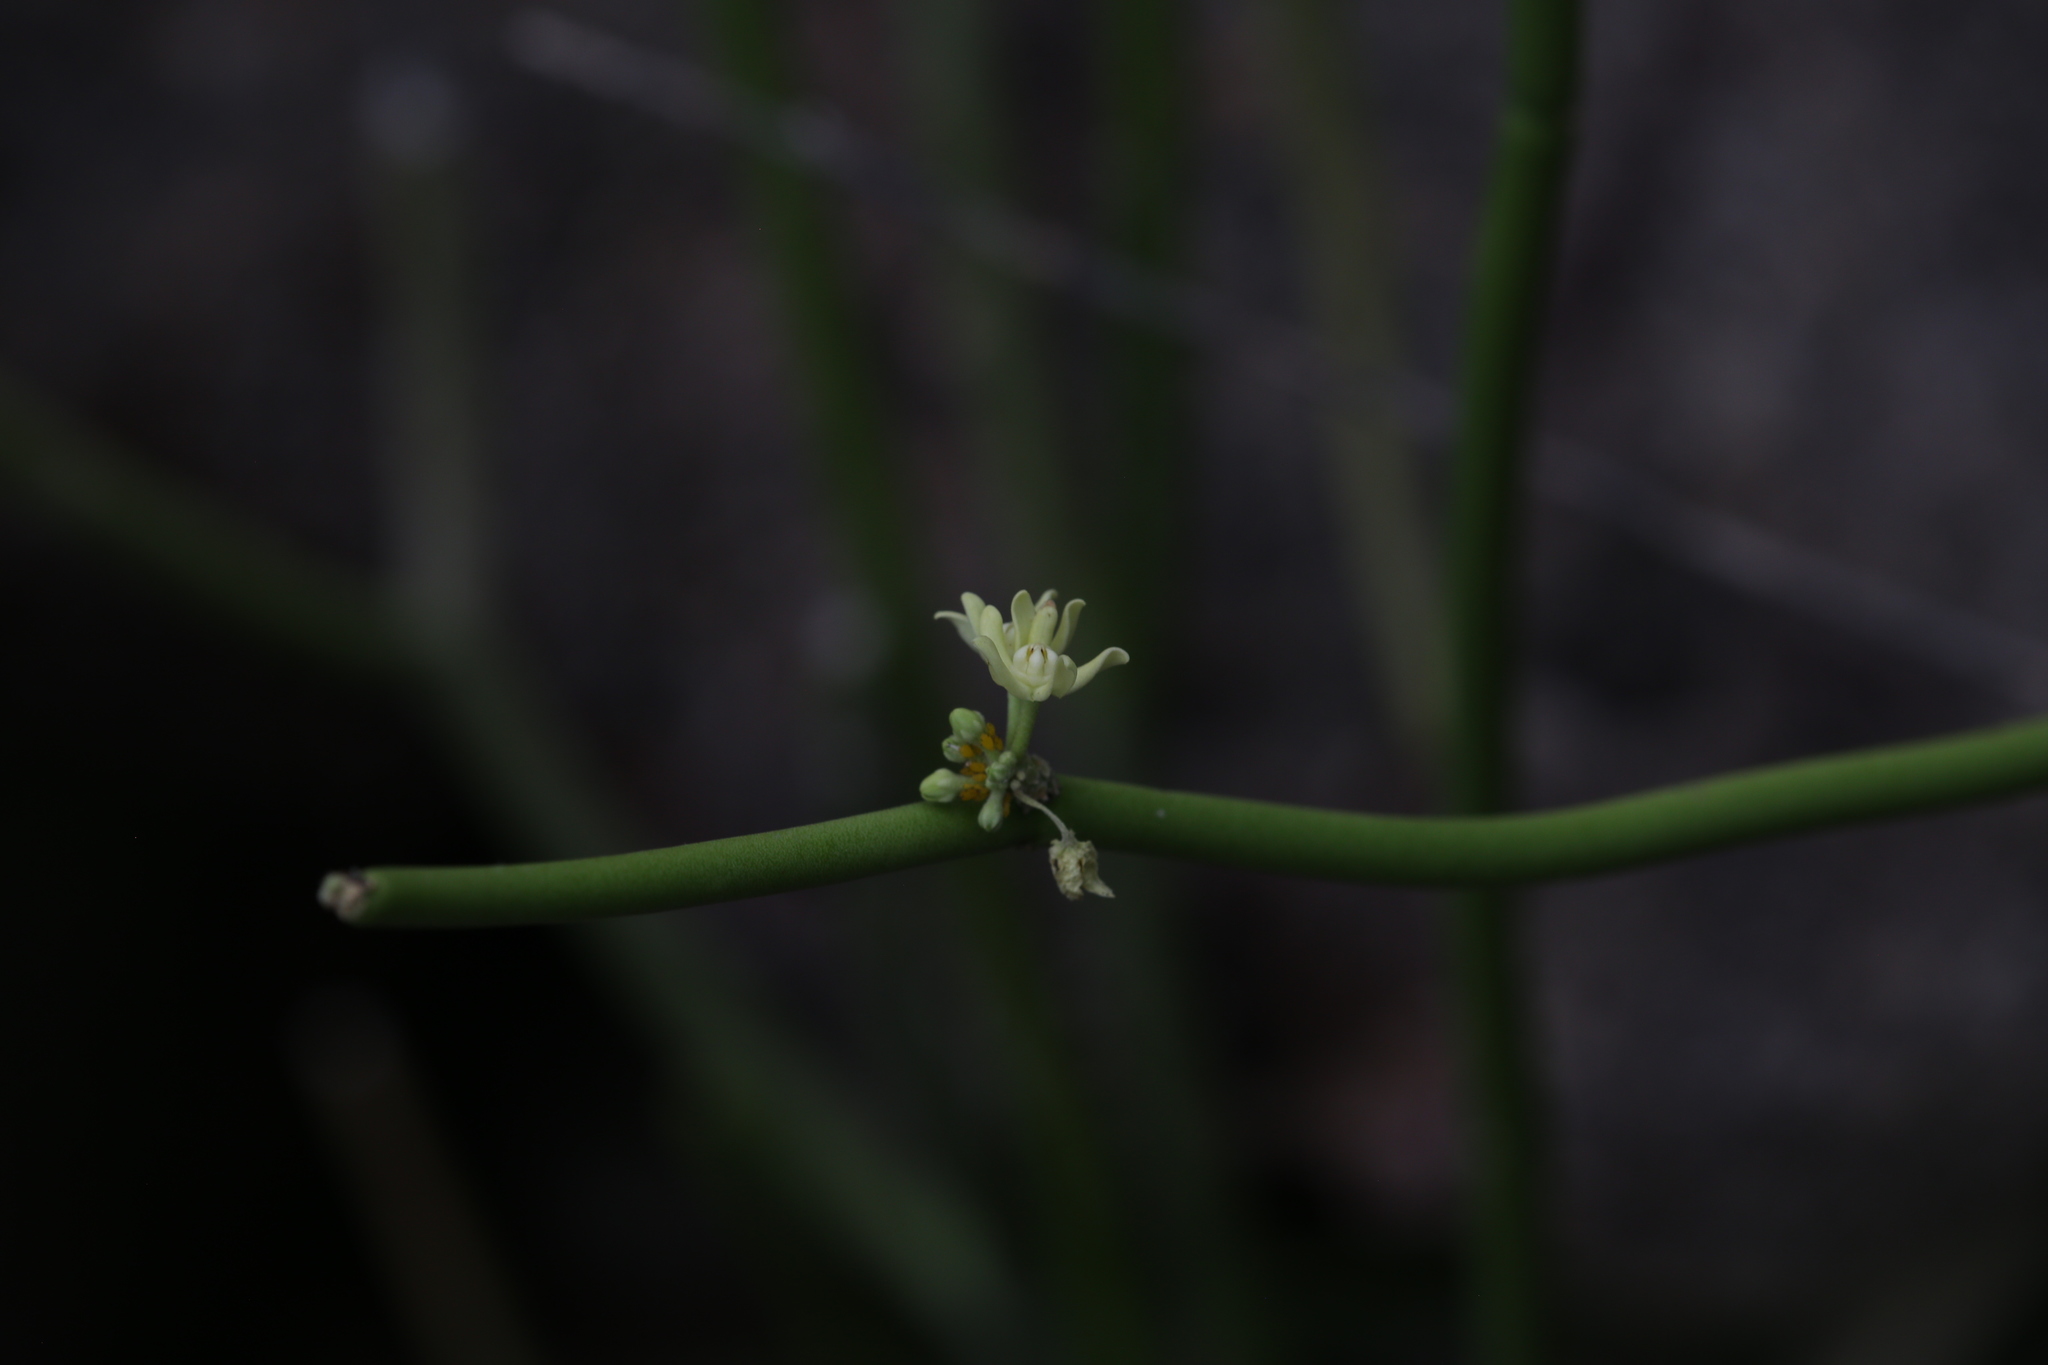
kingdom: Plantae
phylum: Tracheophyta
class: Magnoliopsida
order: Gentianales
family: Apocynaceae
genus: Cynanchum
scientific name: Cynanchum viminale
